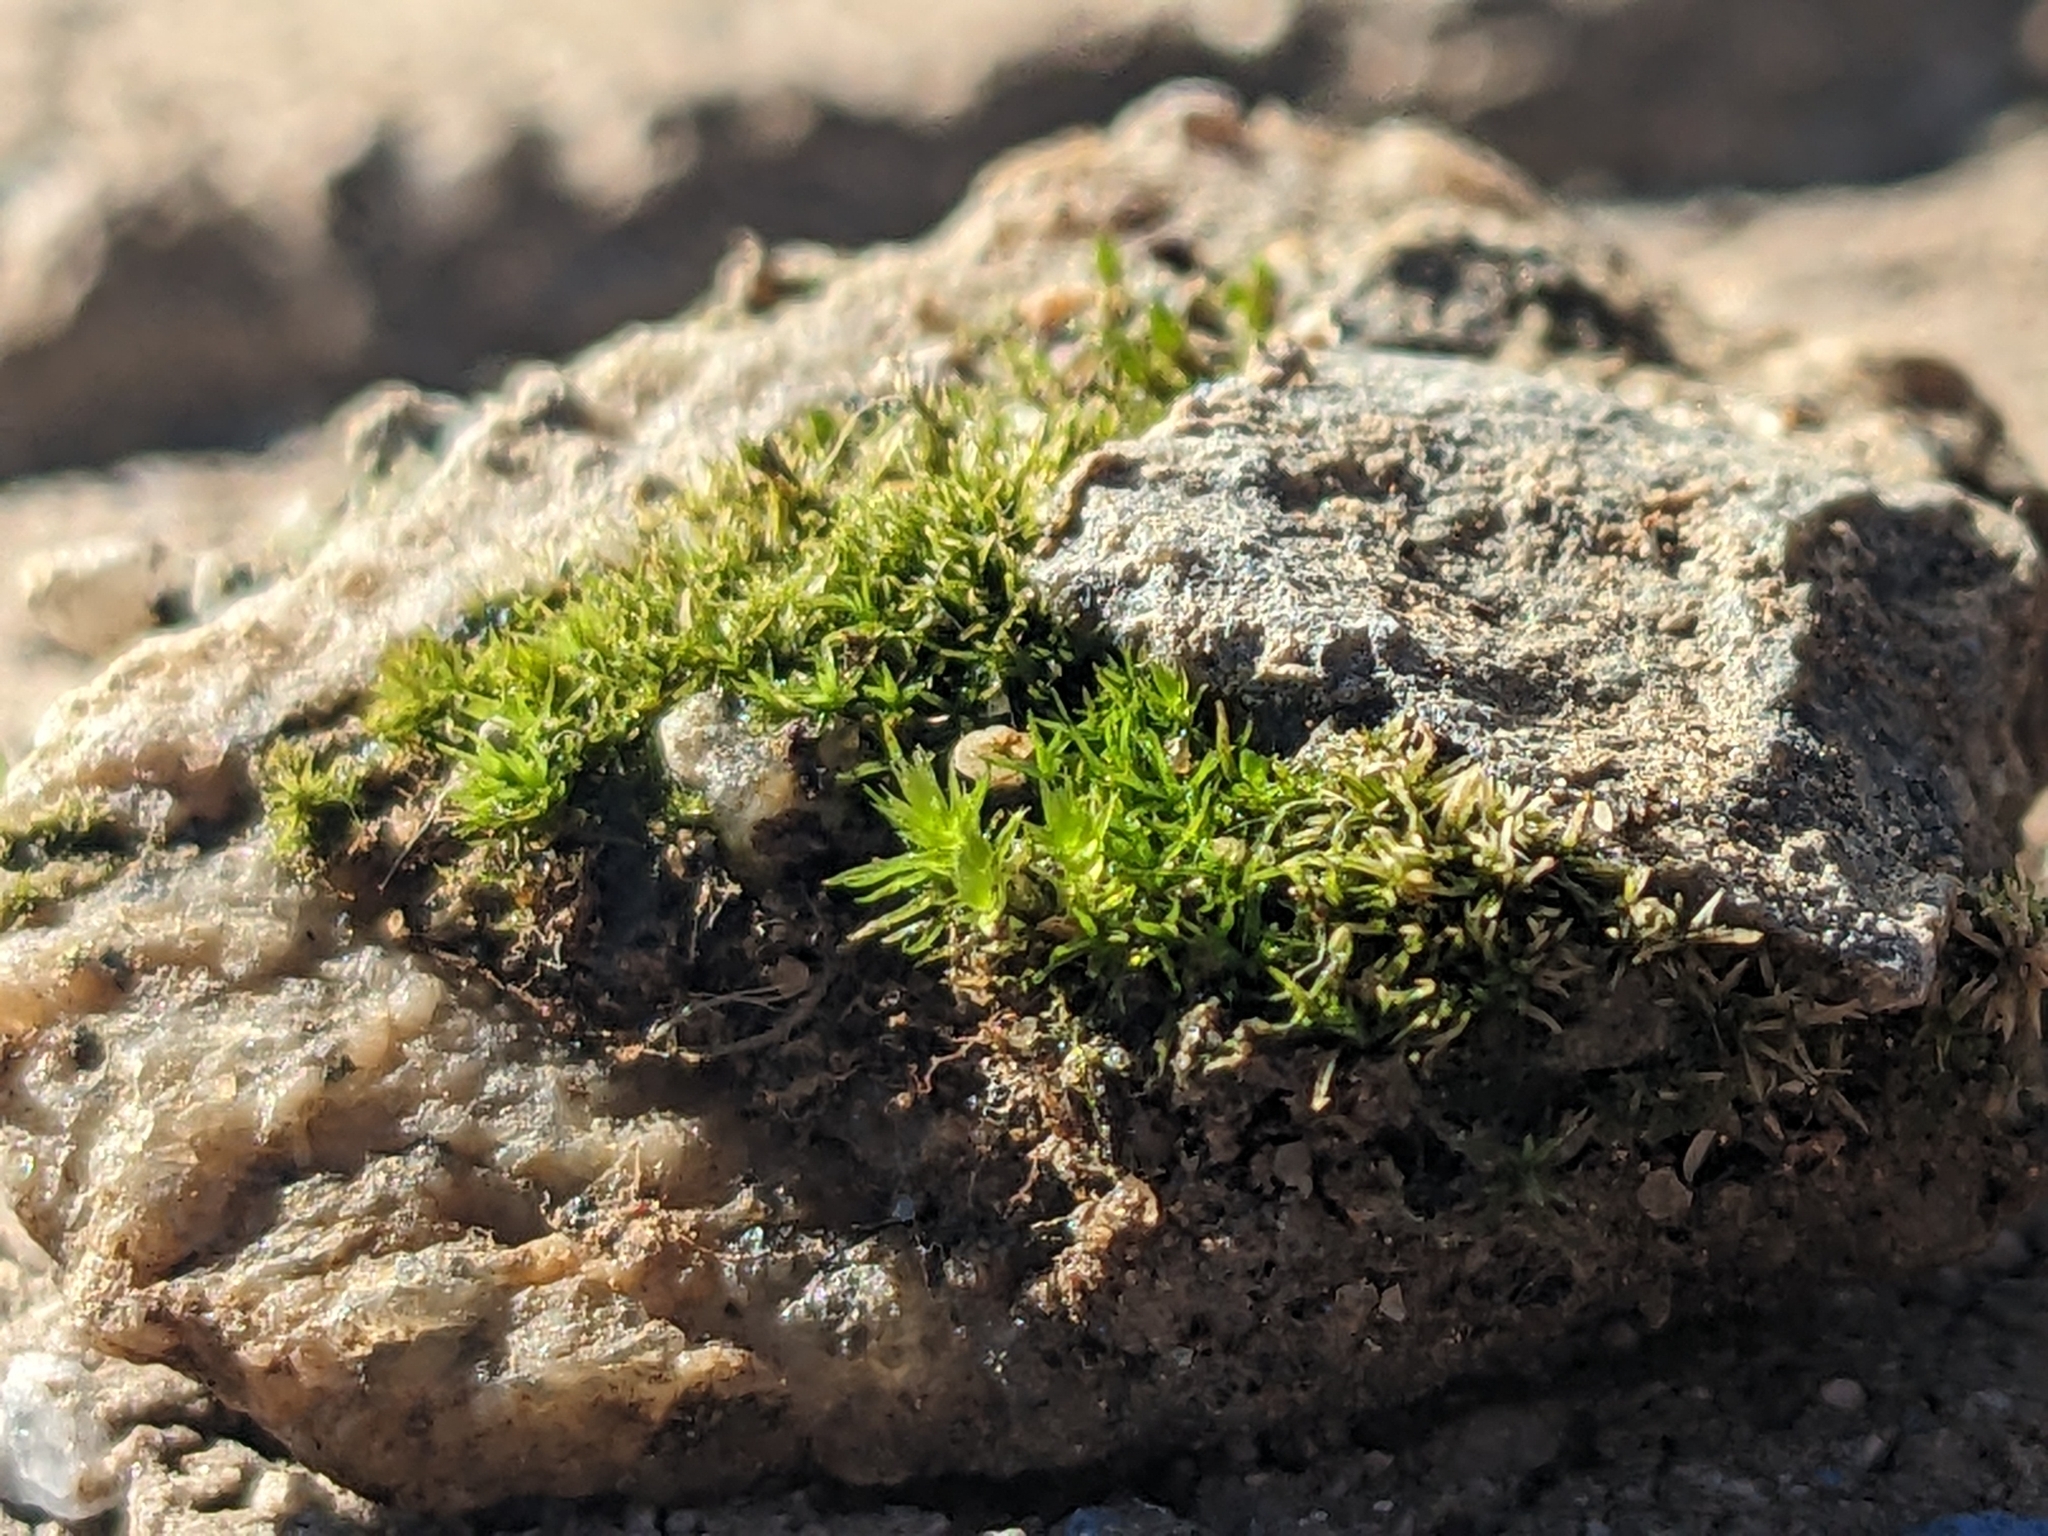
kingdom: Plantae
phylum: Bryophyta
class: Bryopsida
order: Funariales
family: Funariaceae
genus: Funaria
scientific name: Funaria hygrometrica
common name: Common cord moss
